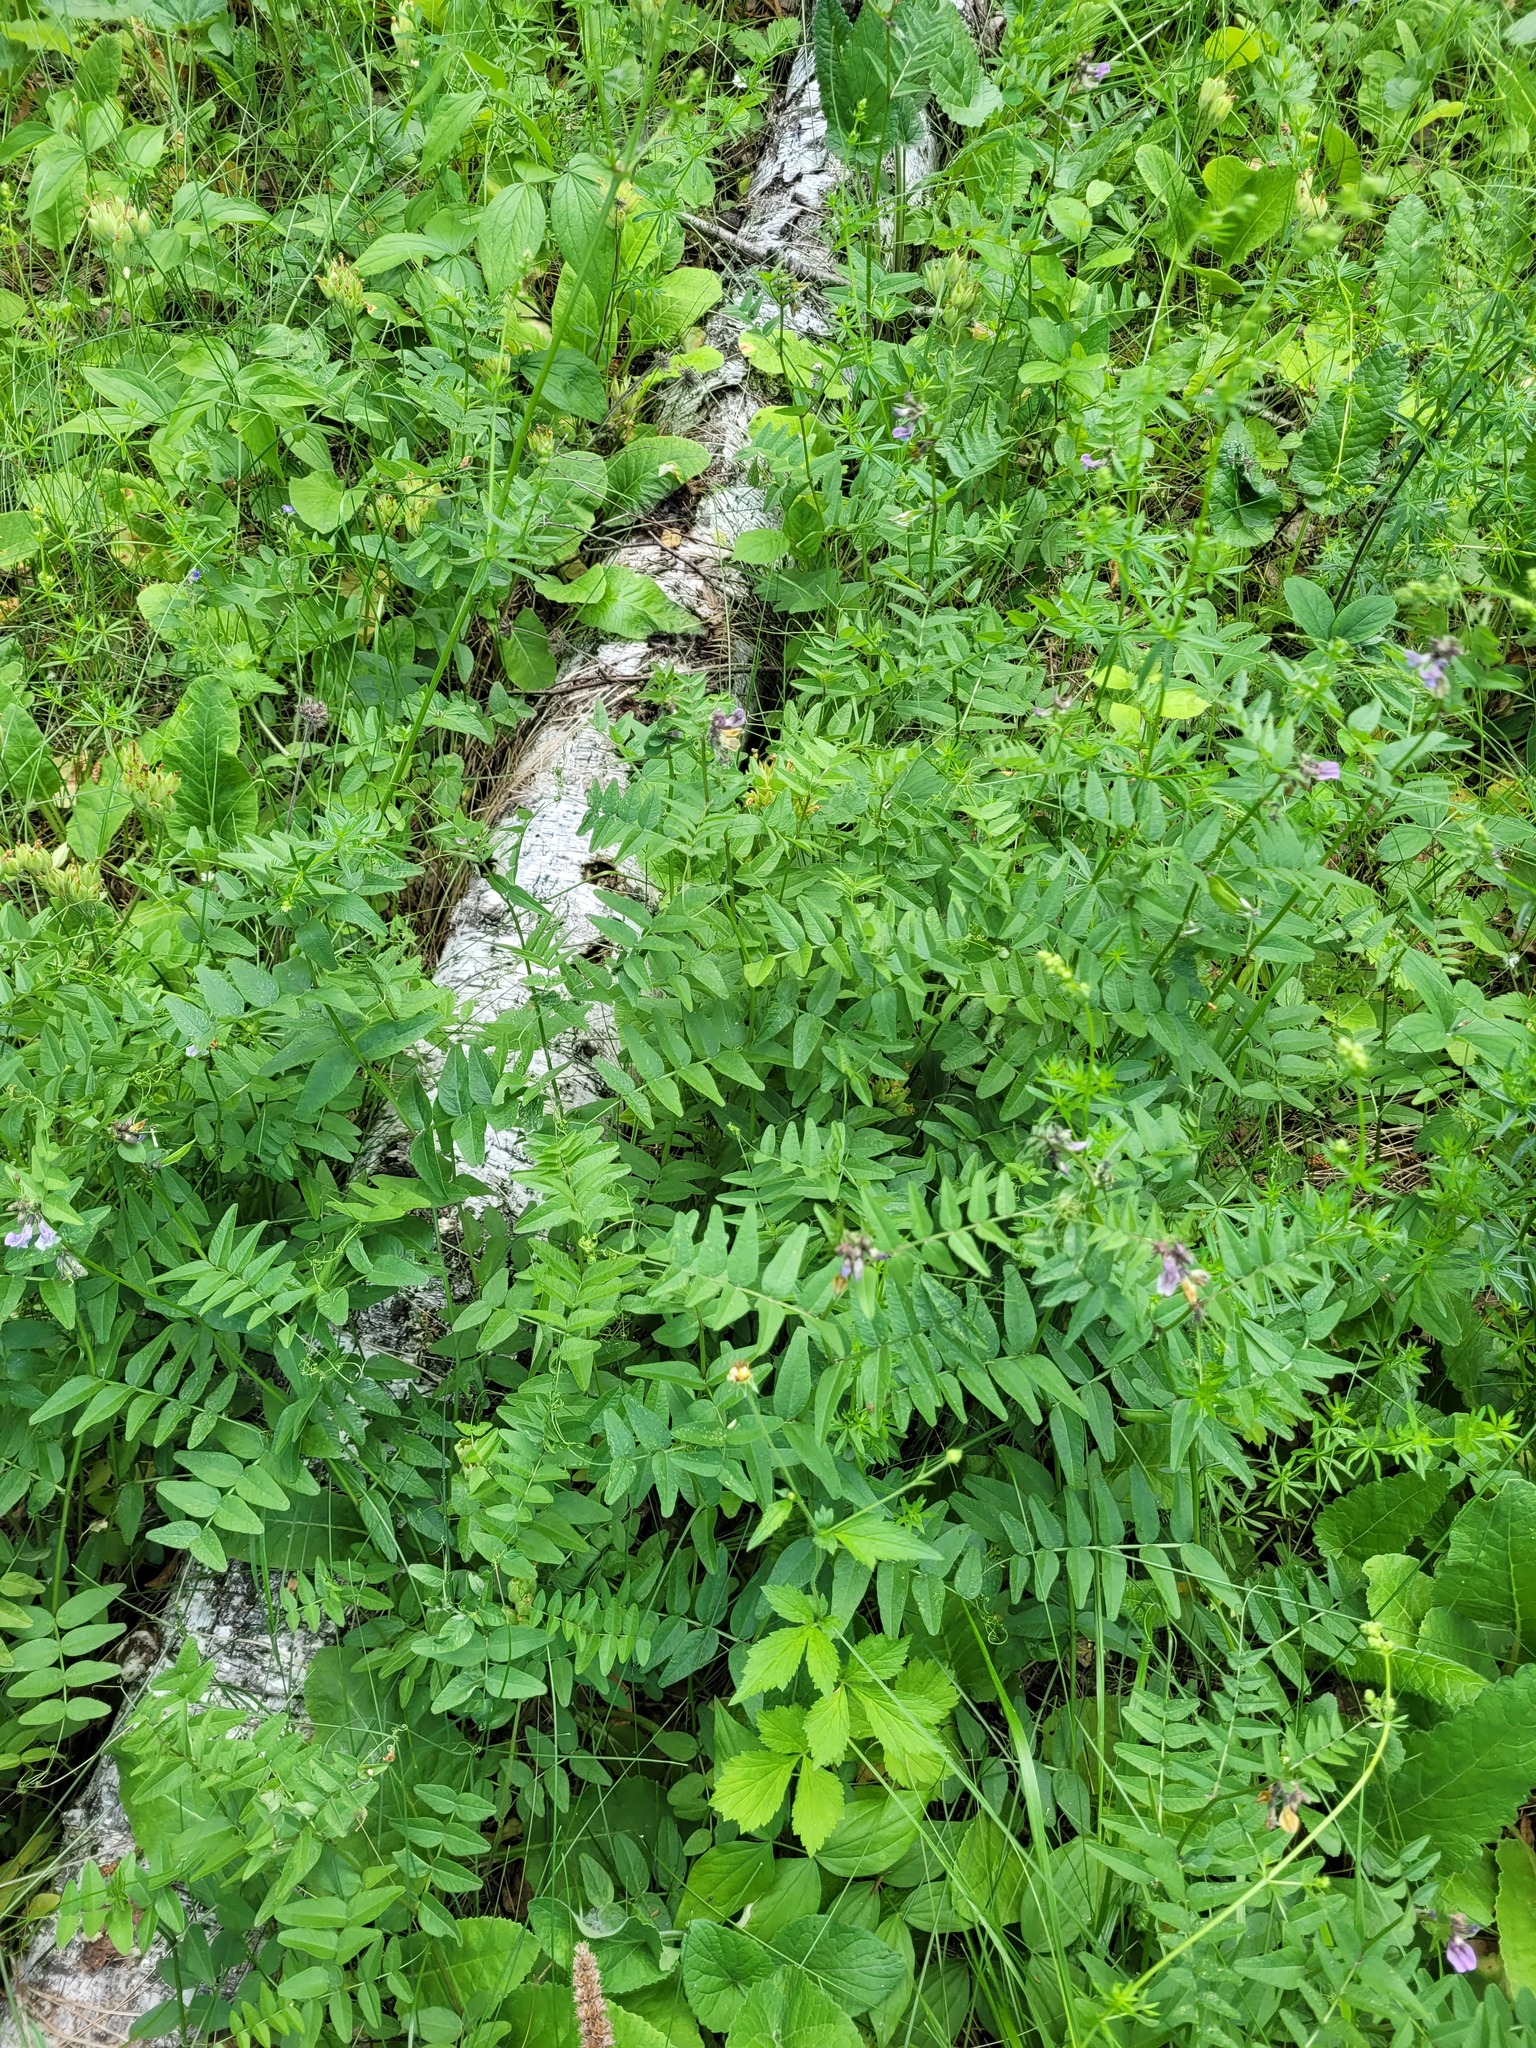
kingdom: Plantae
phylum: Tracheophyta
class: Magnoliopsida
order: Fabales
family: Fabaceae
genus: Vicia
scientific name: Vicia sepium
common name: Bush vetch
